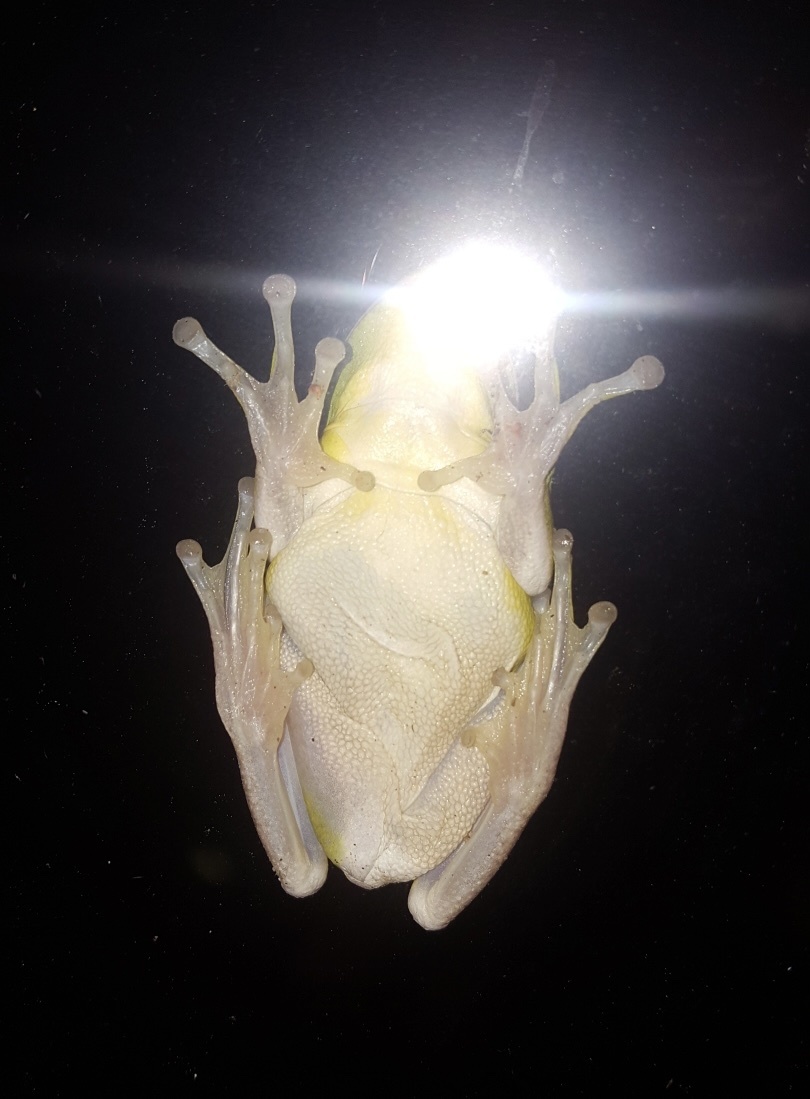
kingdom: Animalia
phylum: Chordata
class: Amphibia
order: Anura
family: Hylidae
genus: Dryophytes
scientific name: Dryophytes cinereus
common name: Green treefrog
